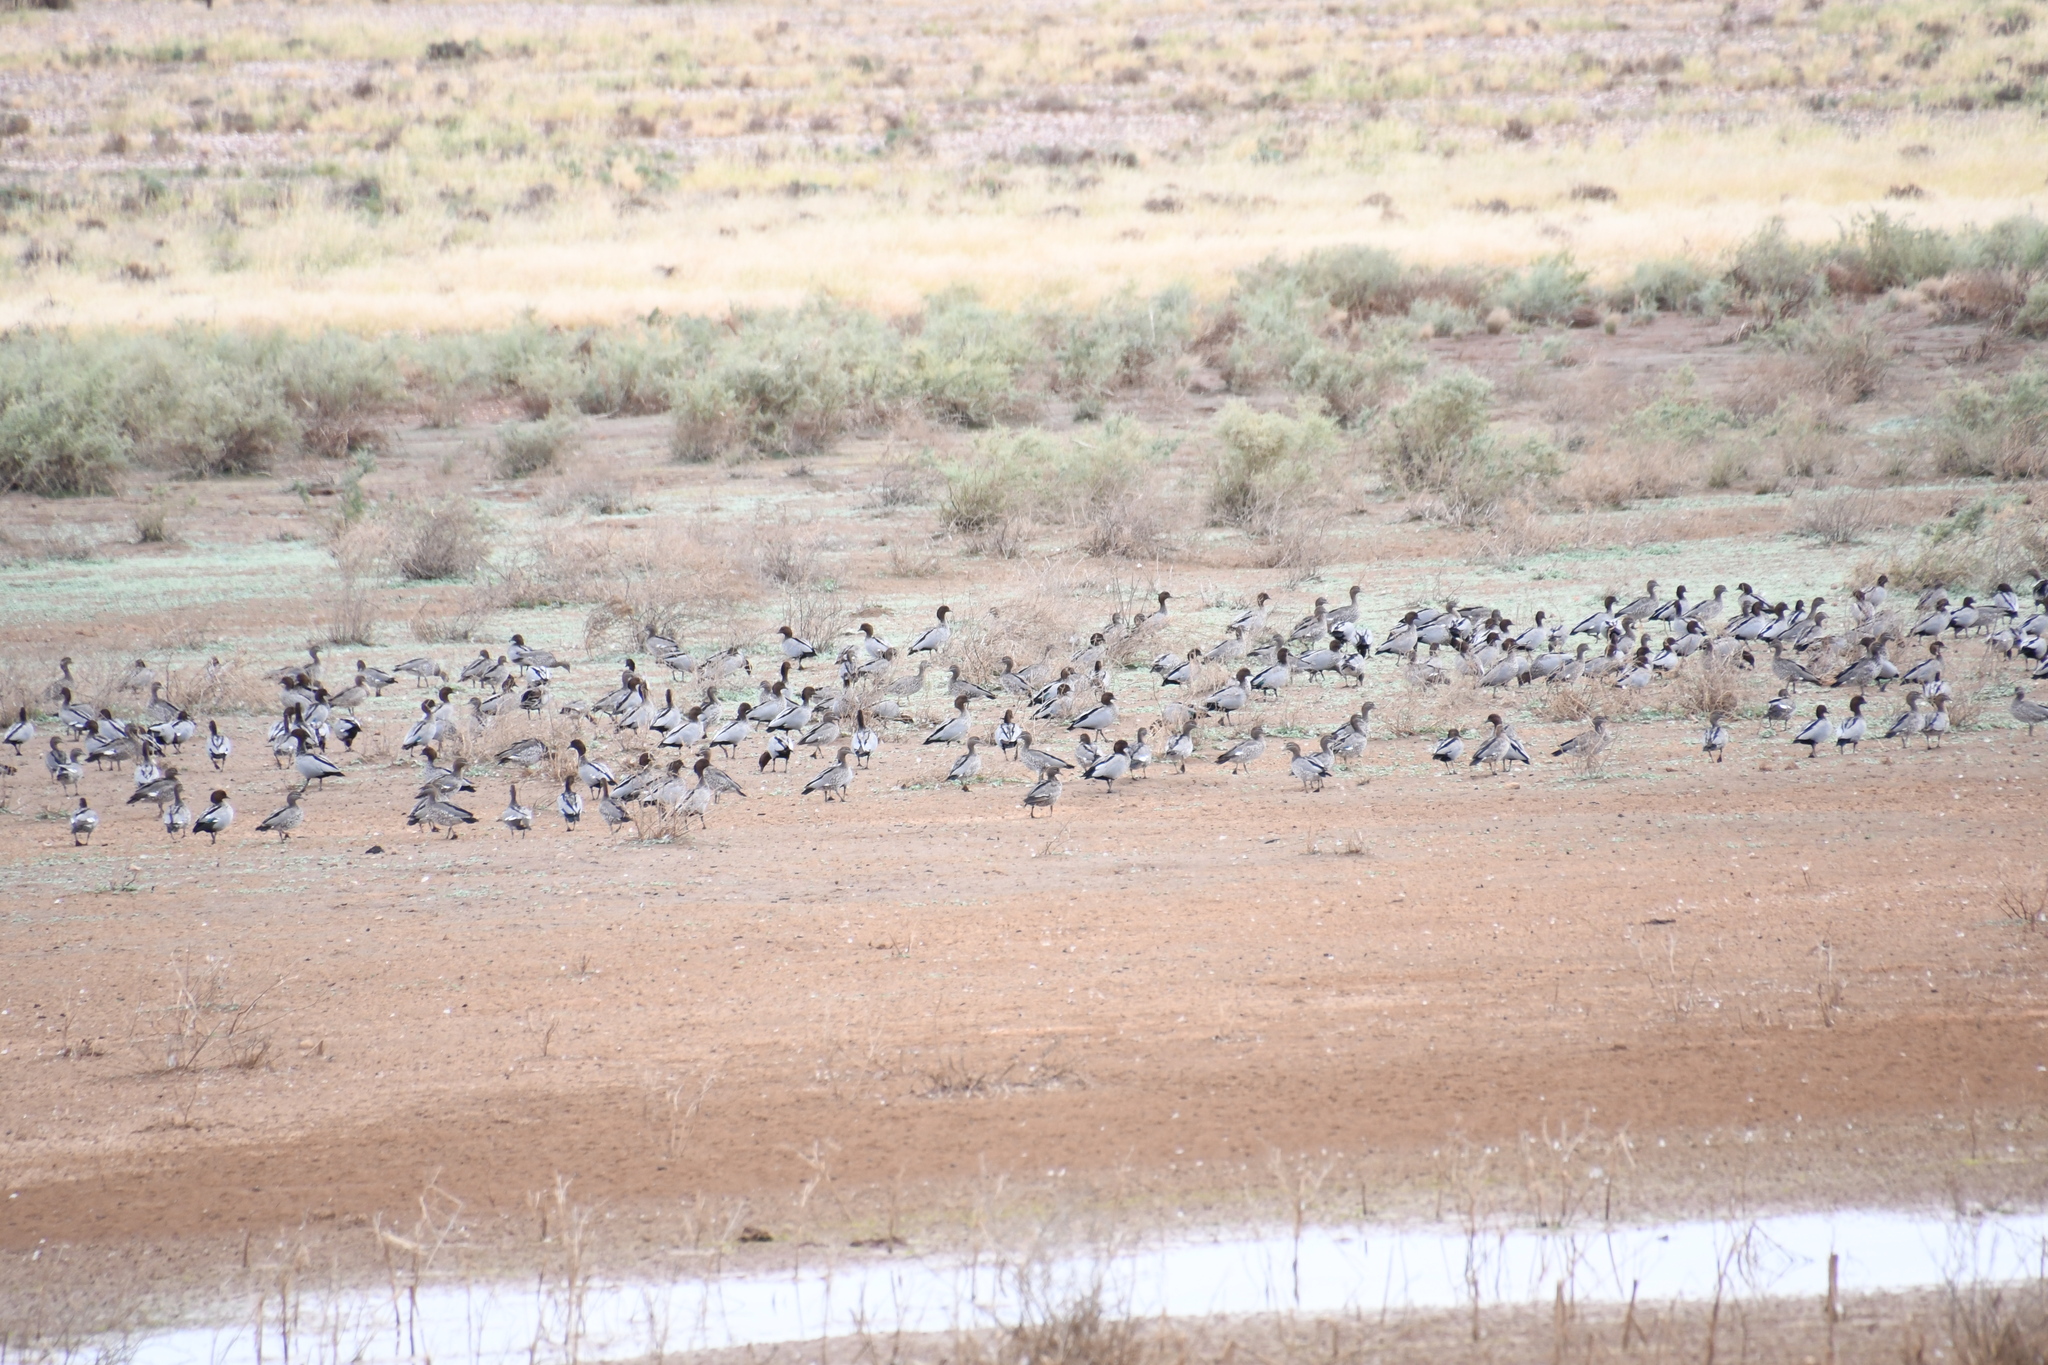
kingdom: Animalia
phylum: Chordata
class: Aves
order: Anseriformes
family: Anatidae
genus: Chenonetta
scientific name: Chenonetta jubata
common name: Maned duck
